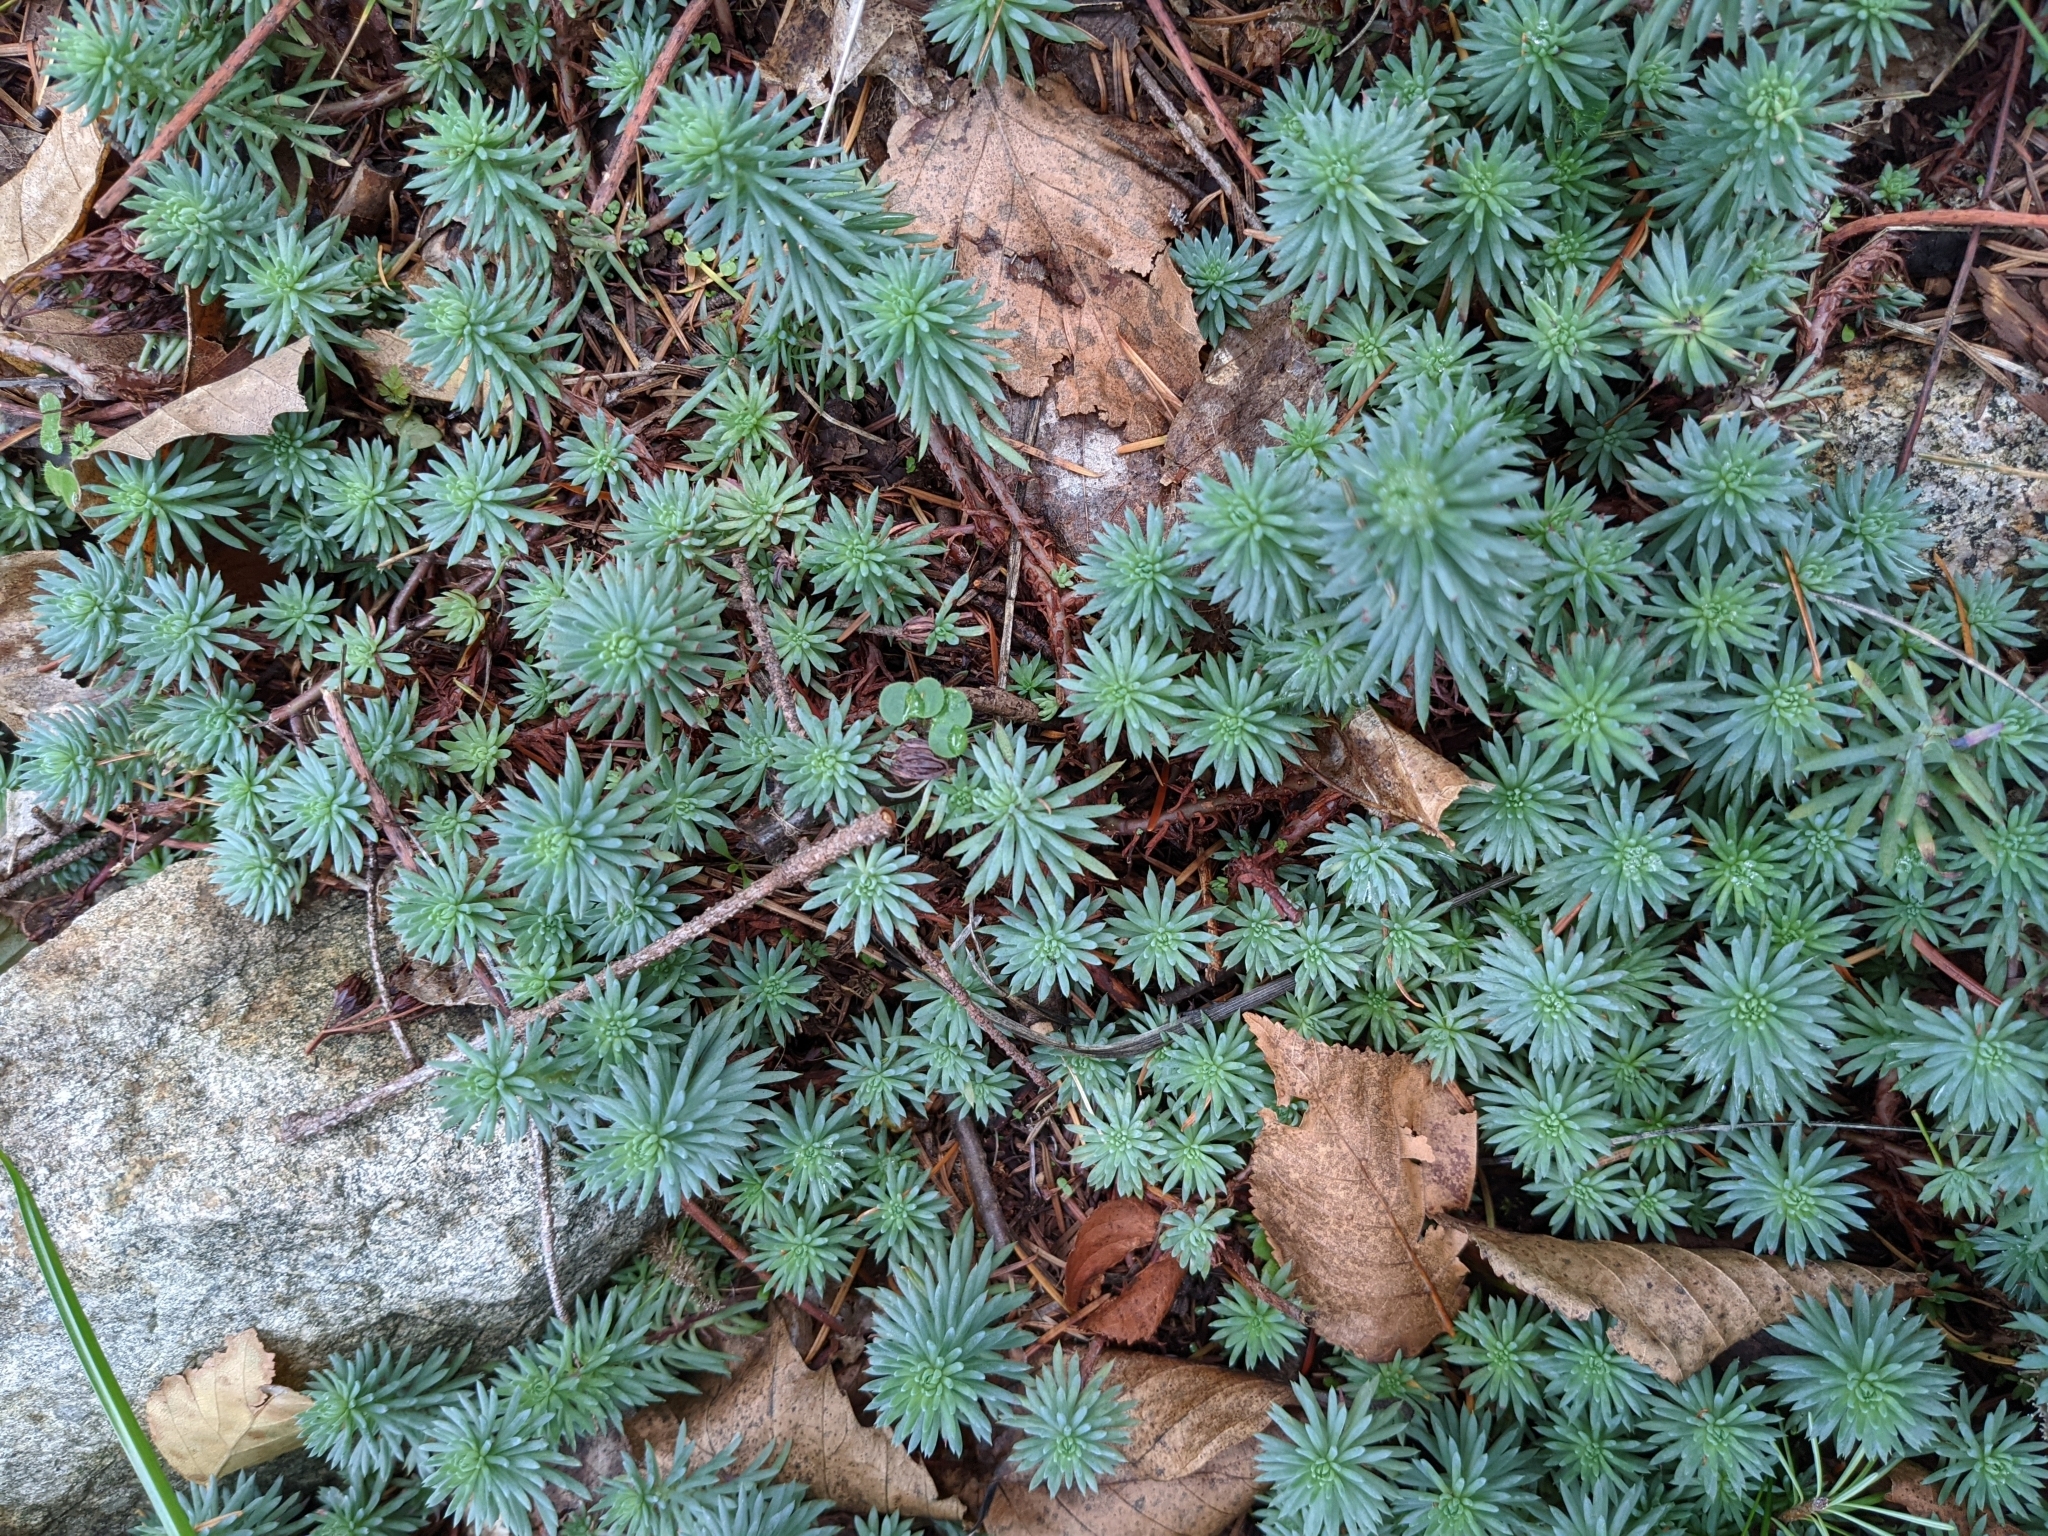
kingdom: Plantae
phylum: Tracheophyta
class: Magnoliopsida
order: Saxifragales
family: Crassulaceae
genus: Petrosedum
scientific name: Petrosedum forsterianum
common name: Forster's stonecrop
